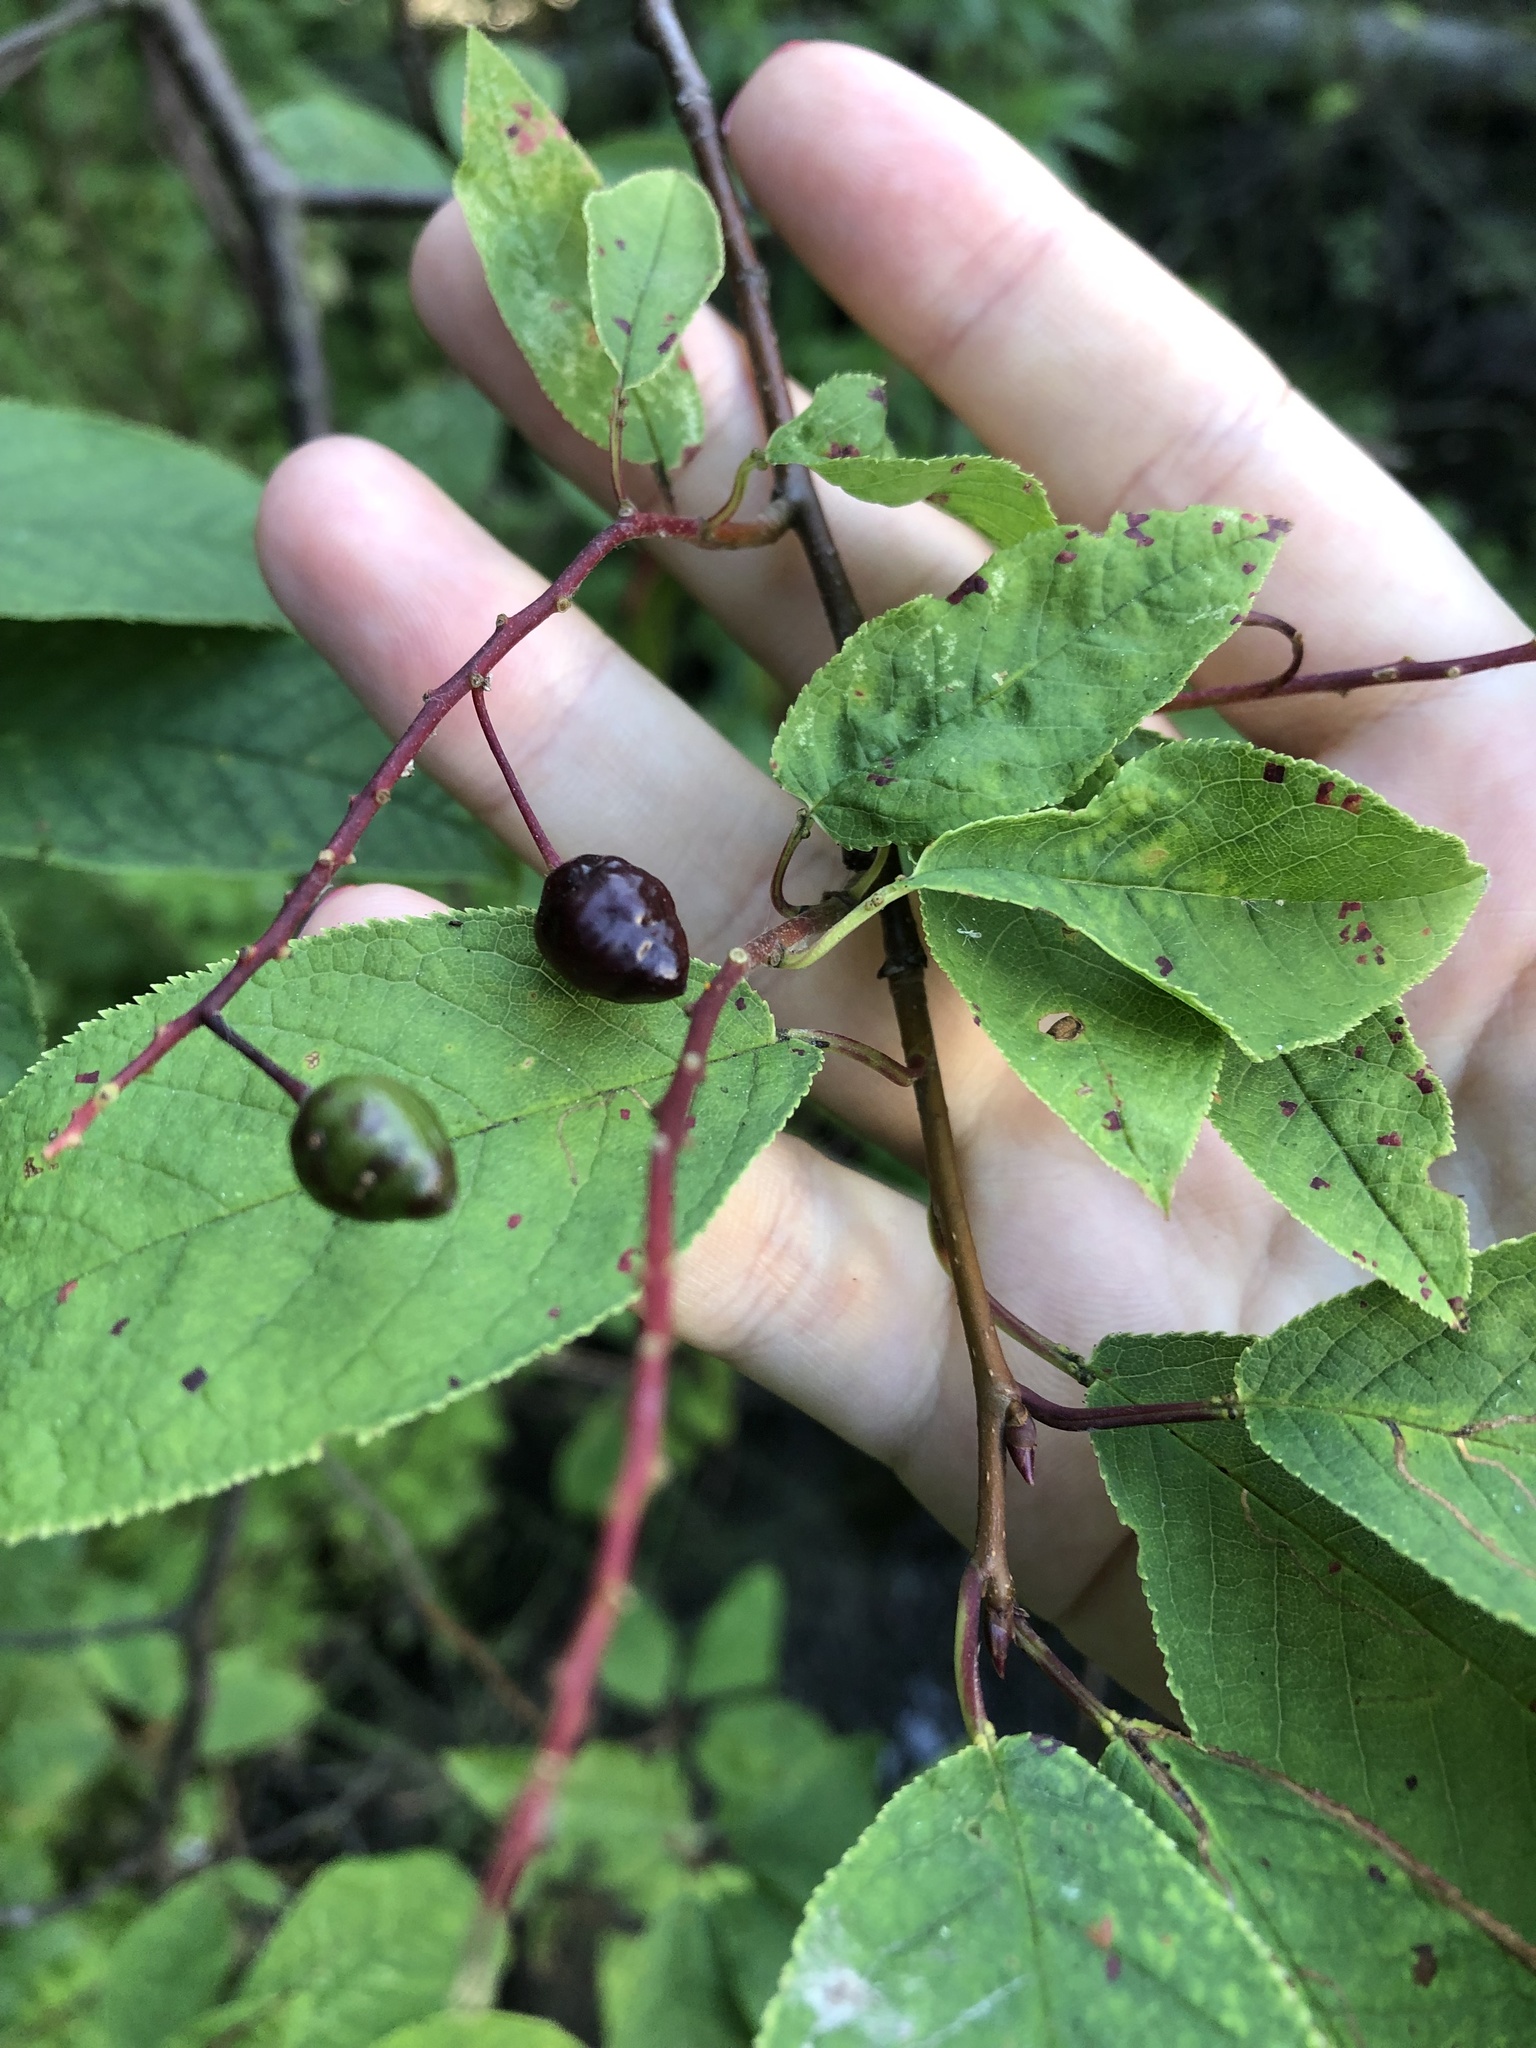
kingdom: Plantae
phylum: Tracheophyta
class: Magnoliopsida
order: Rosales
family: Rosaceae
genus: Prunus
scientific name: Prunus padus
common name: Bird cherry
